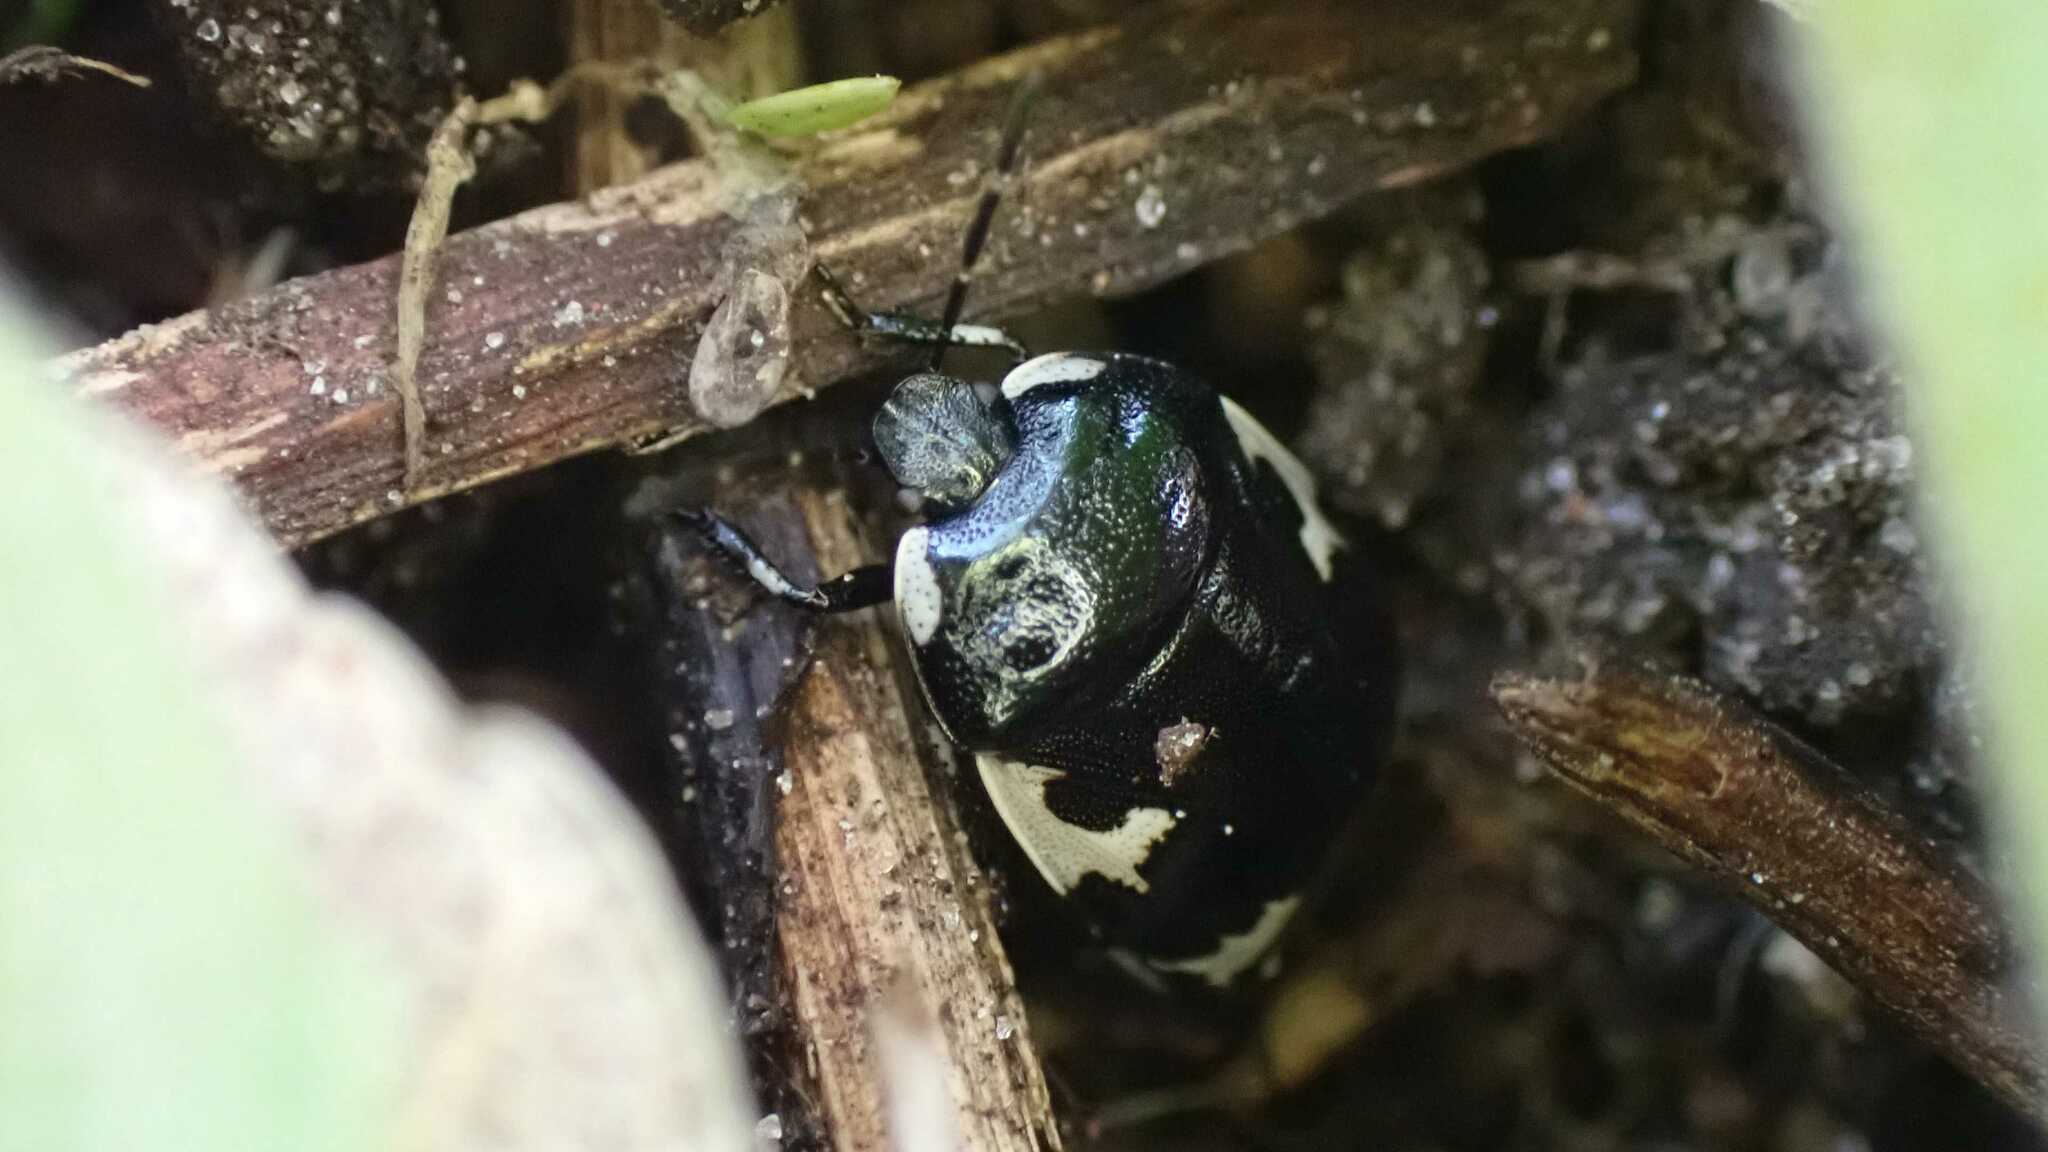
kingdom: Animalia
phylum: Arthropoda
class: Insecta
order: Hemiptera
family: Cydnidae
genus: Tritomegas
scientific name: Tritomegas bicolor
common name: Pied shieldbug
